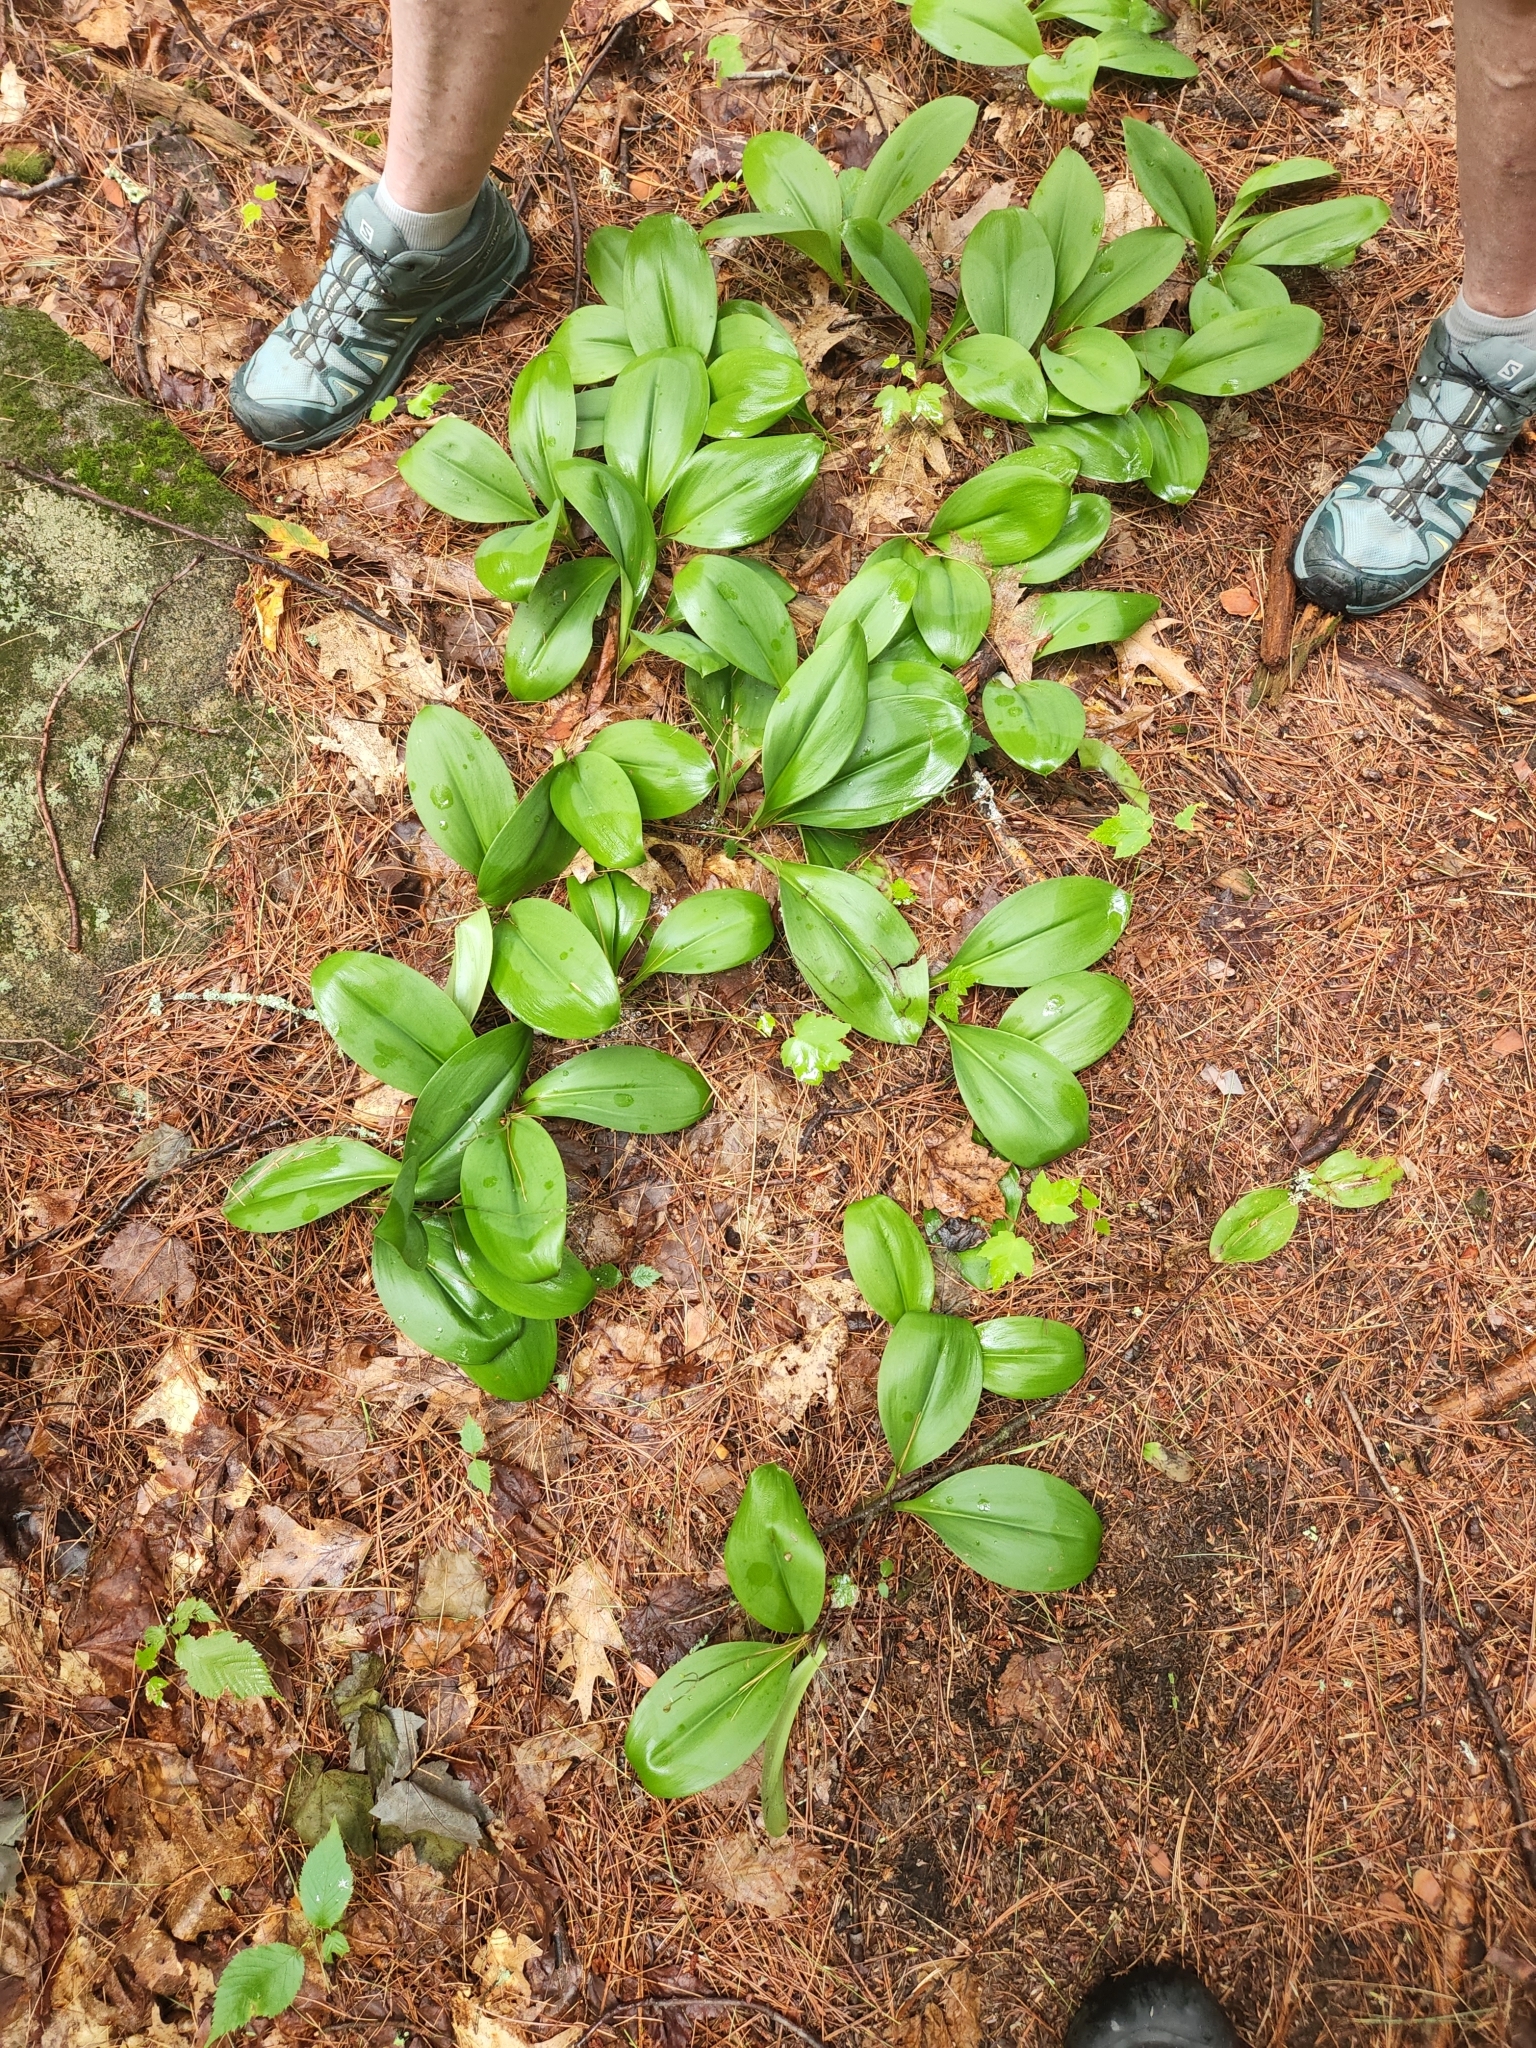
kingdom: Plantae
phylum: Tracheophyta
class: Liliopsida
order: Liliales
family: Liliaceae
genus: Clintonia
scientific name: Clintonia borealis
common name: Yellow clintonia
